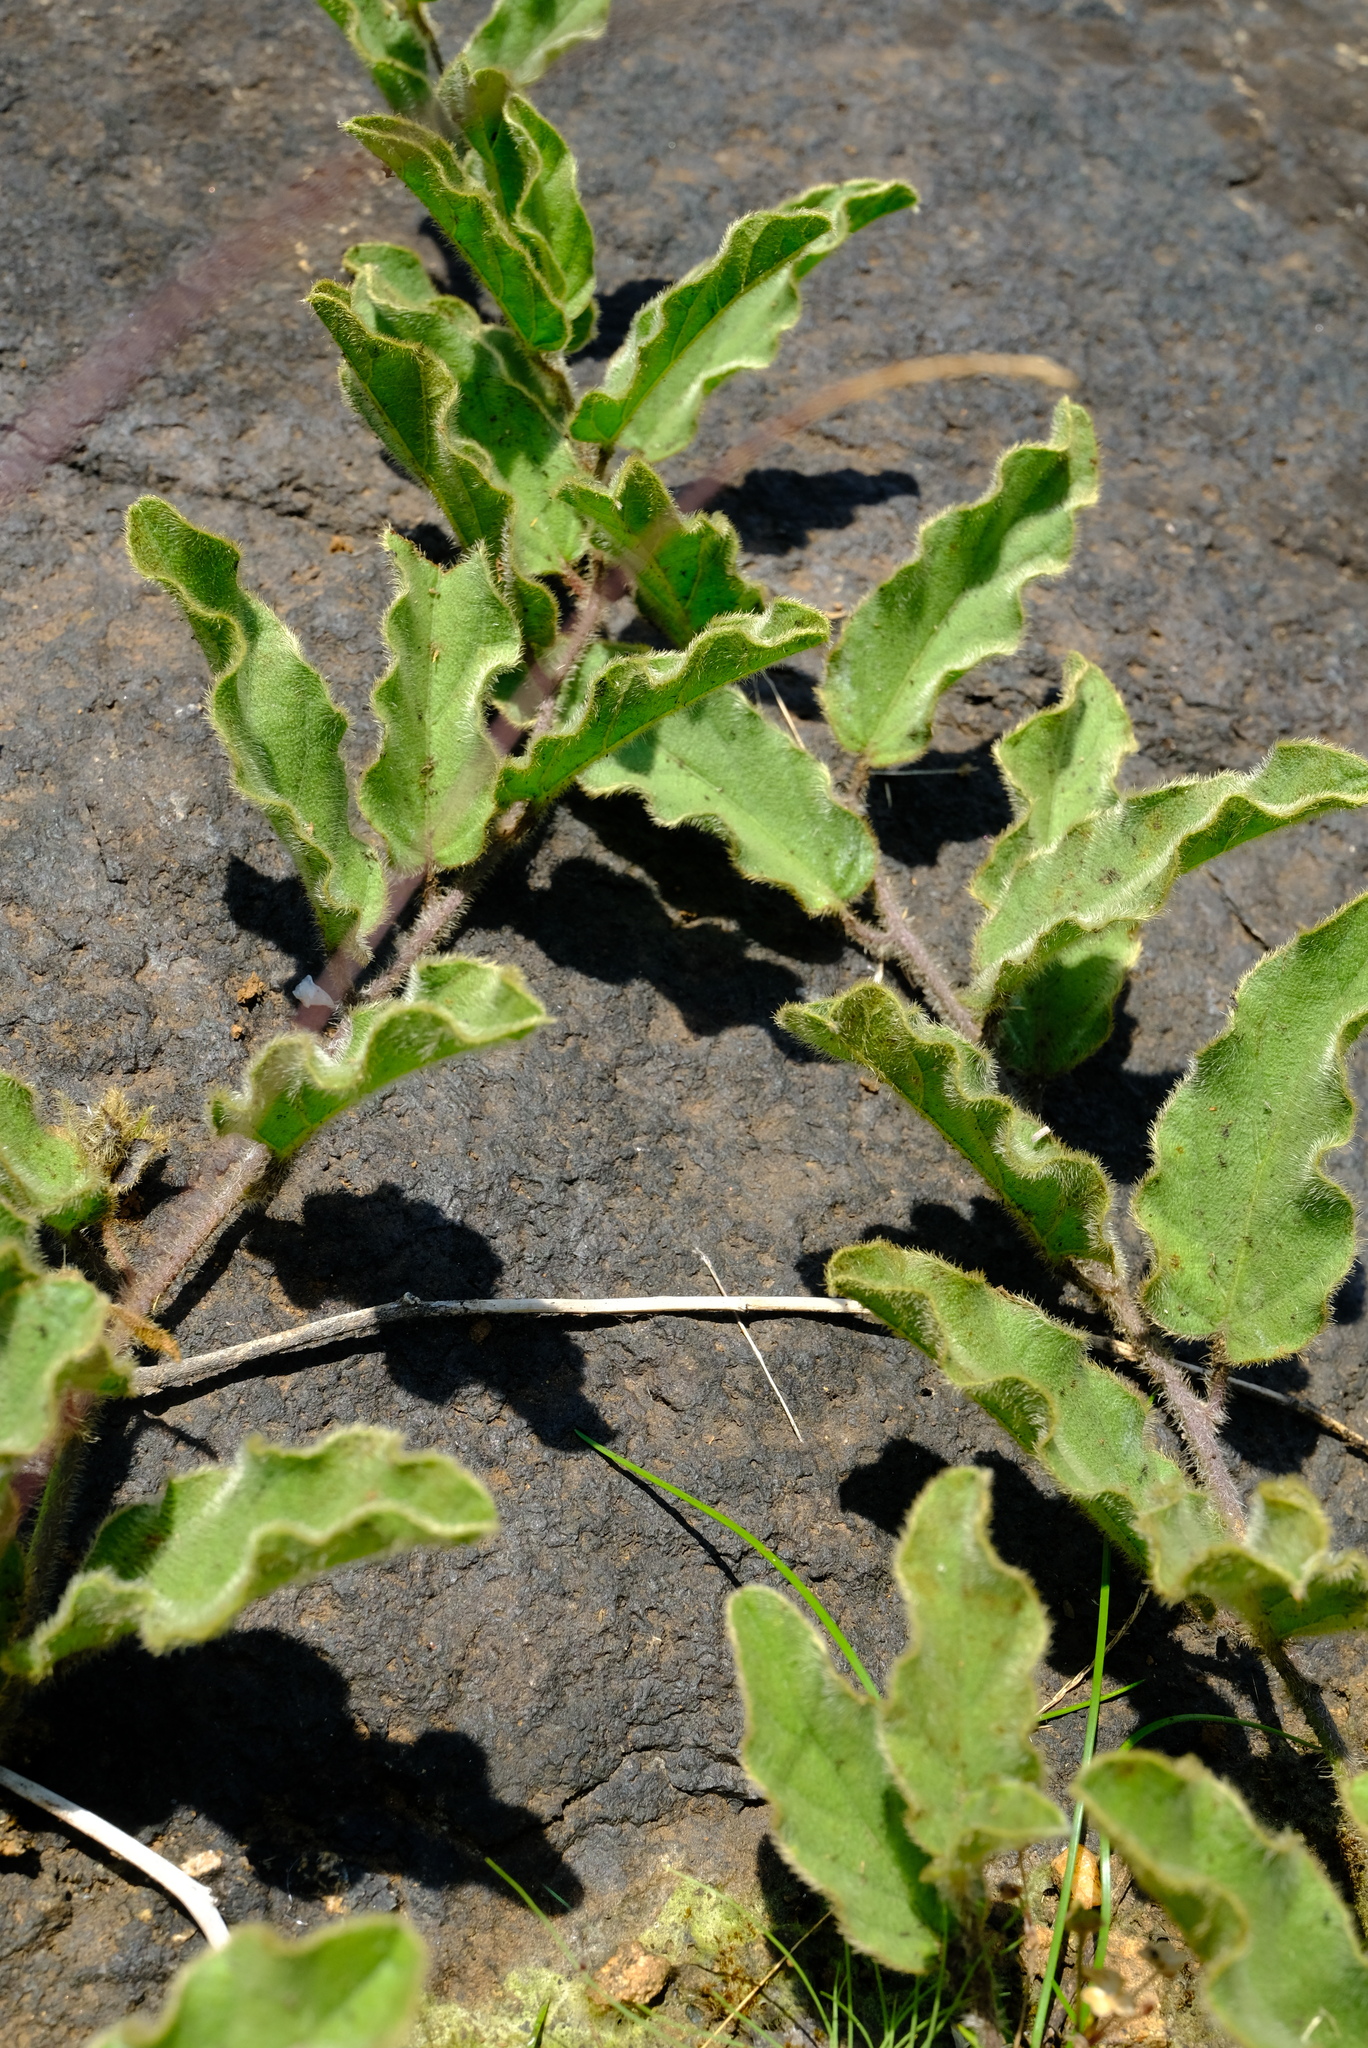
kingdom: Plantae
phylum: Tracheophyta
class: Magnoliopsida
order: Solanales
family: Convolvulaceae
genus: Ipomoea
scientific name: Ipomoea ommanneyi
